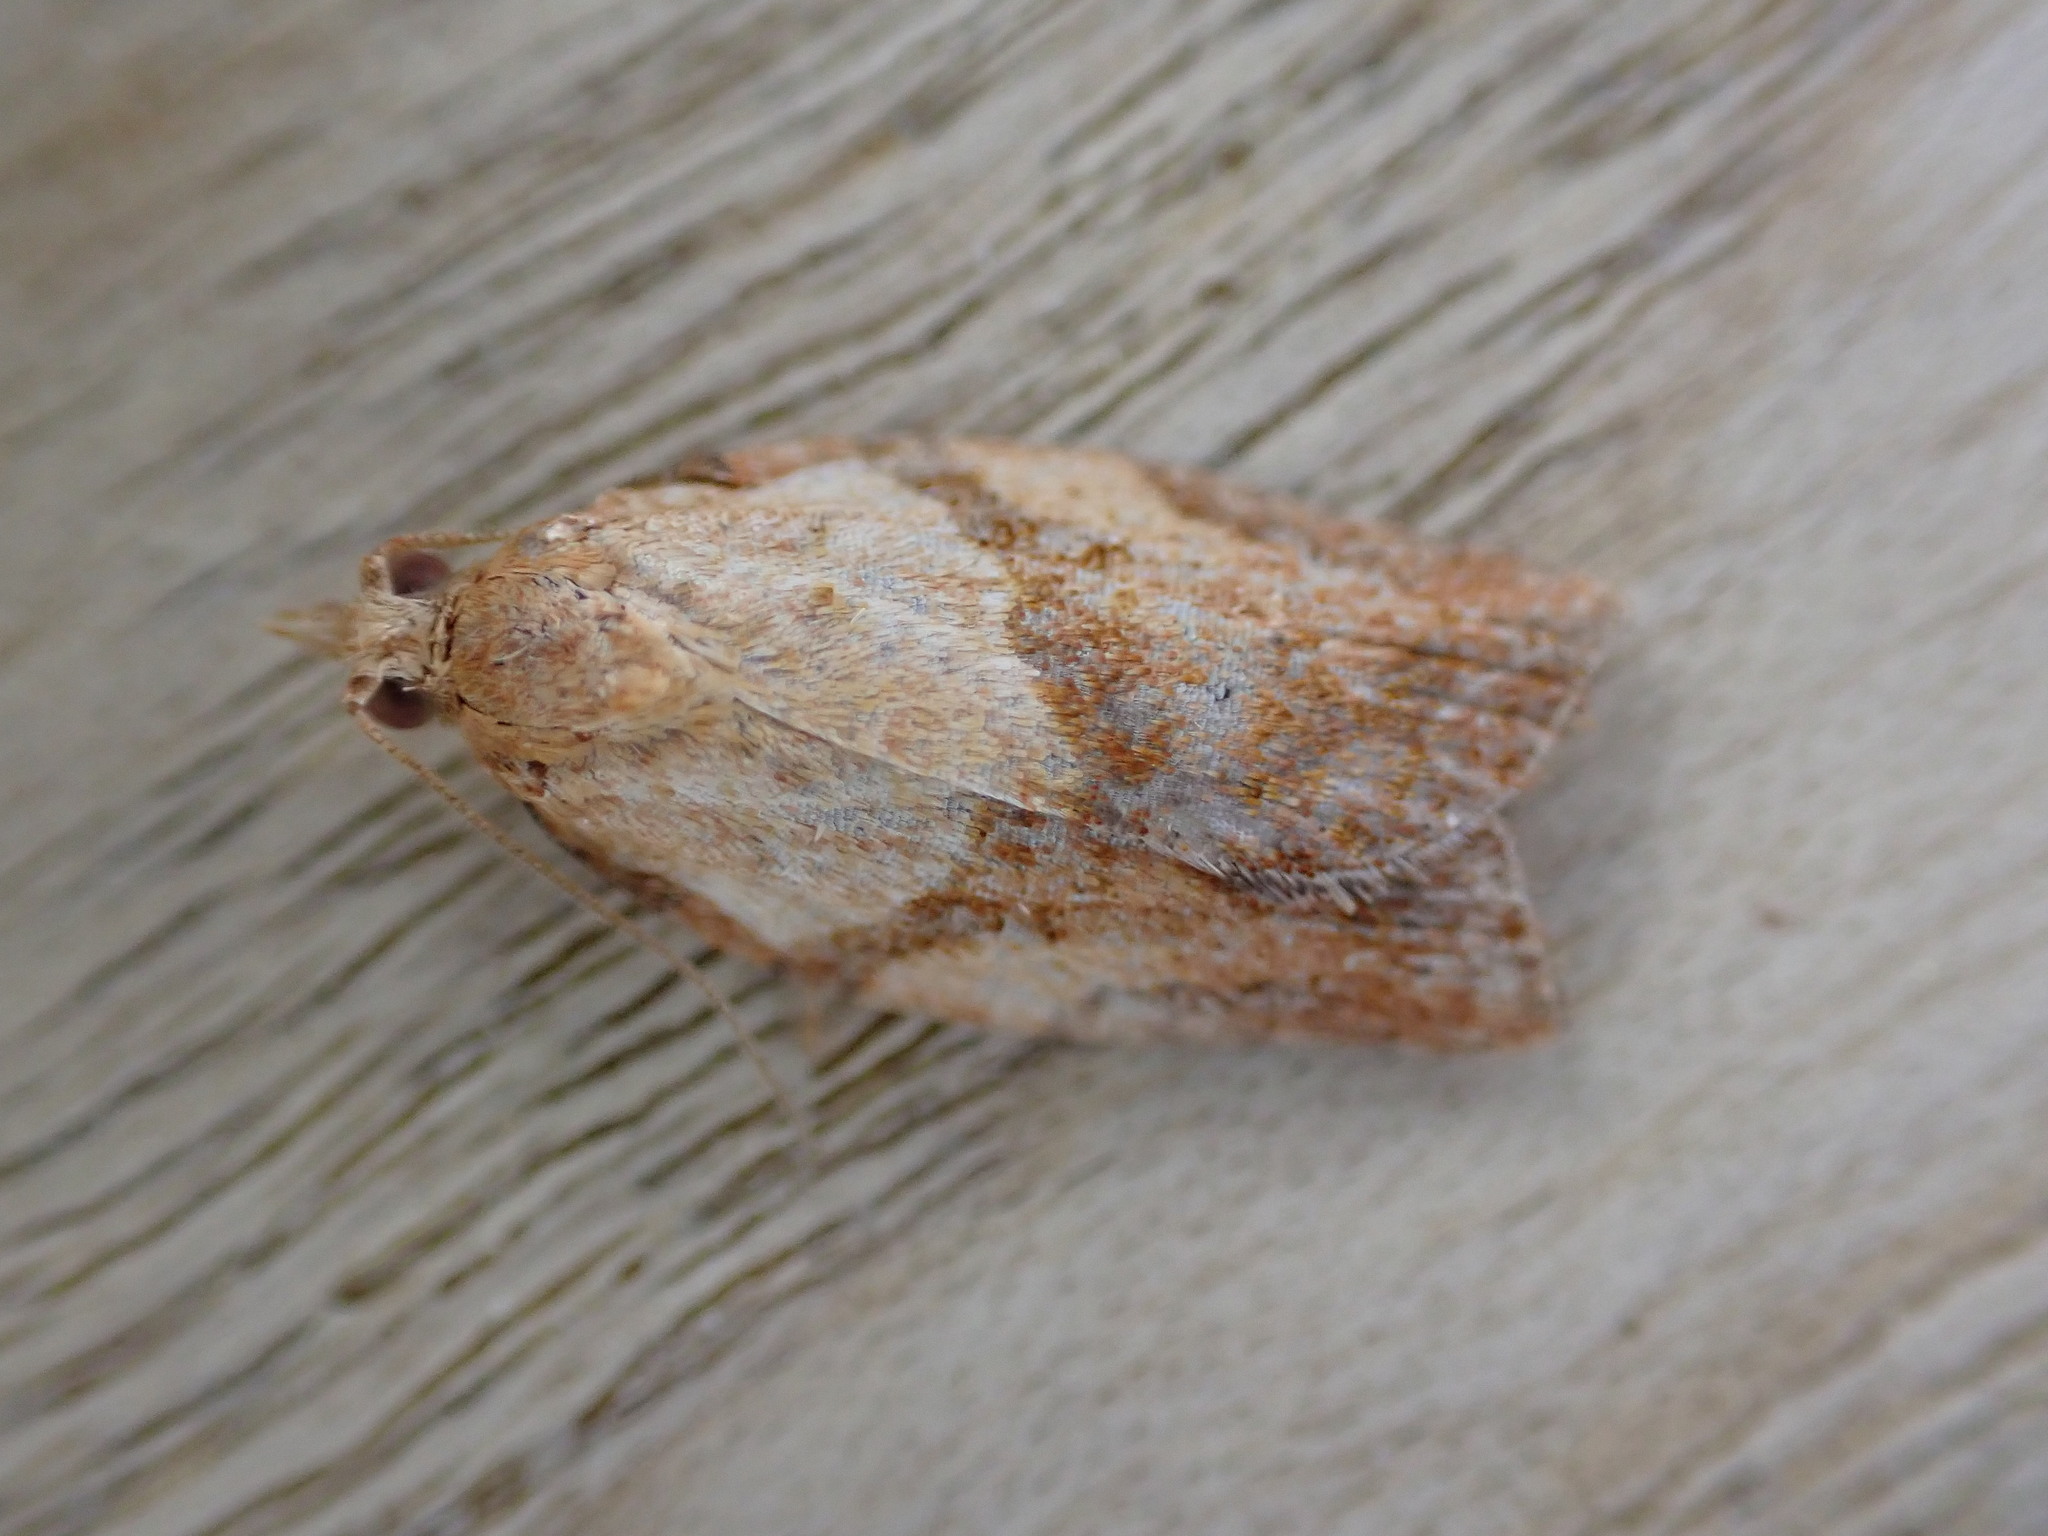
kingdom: Animalia
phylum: Arthropoda
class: Insecta
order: Lepidoptera
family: Tortricidae
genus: Epiphyas
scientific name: Epiphyas postvittana
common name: Light brown apple moth
